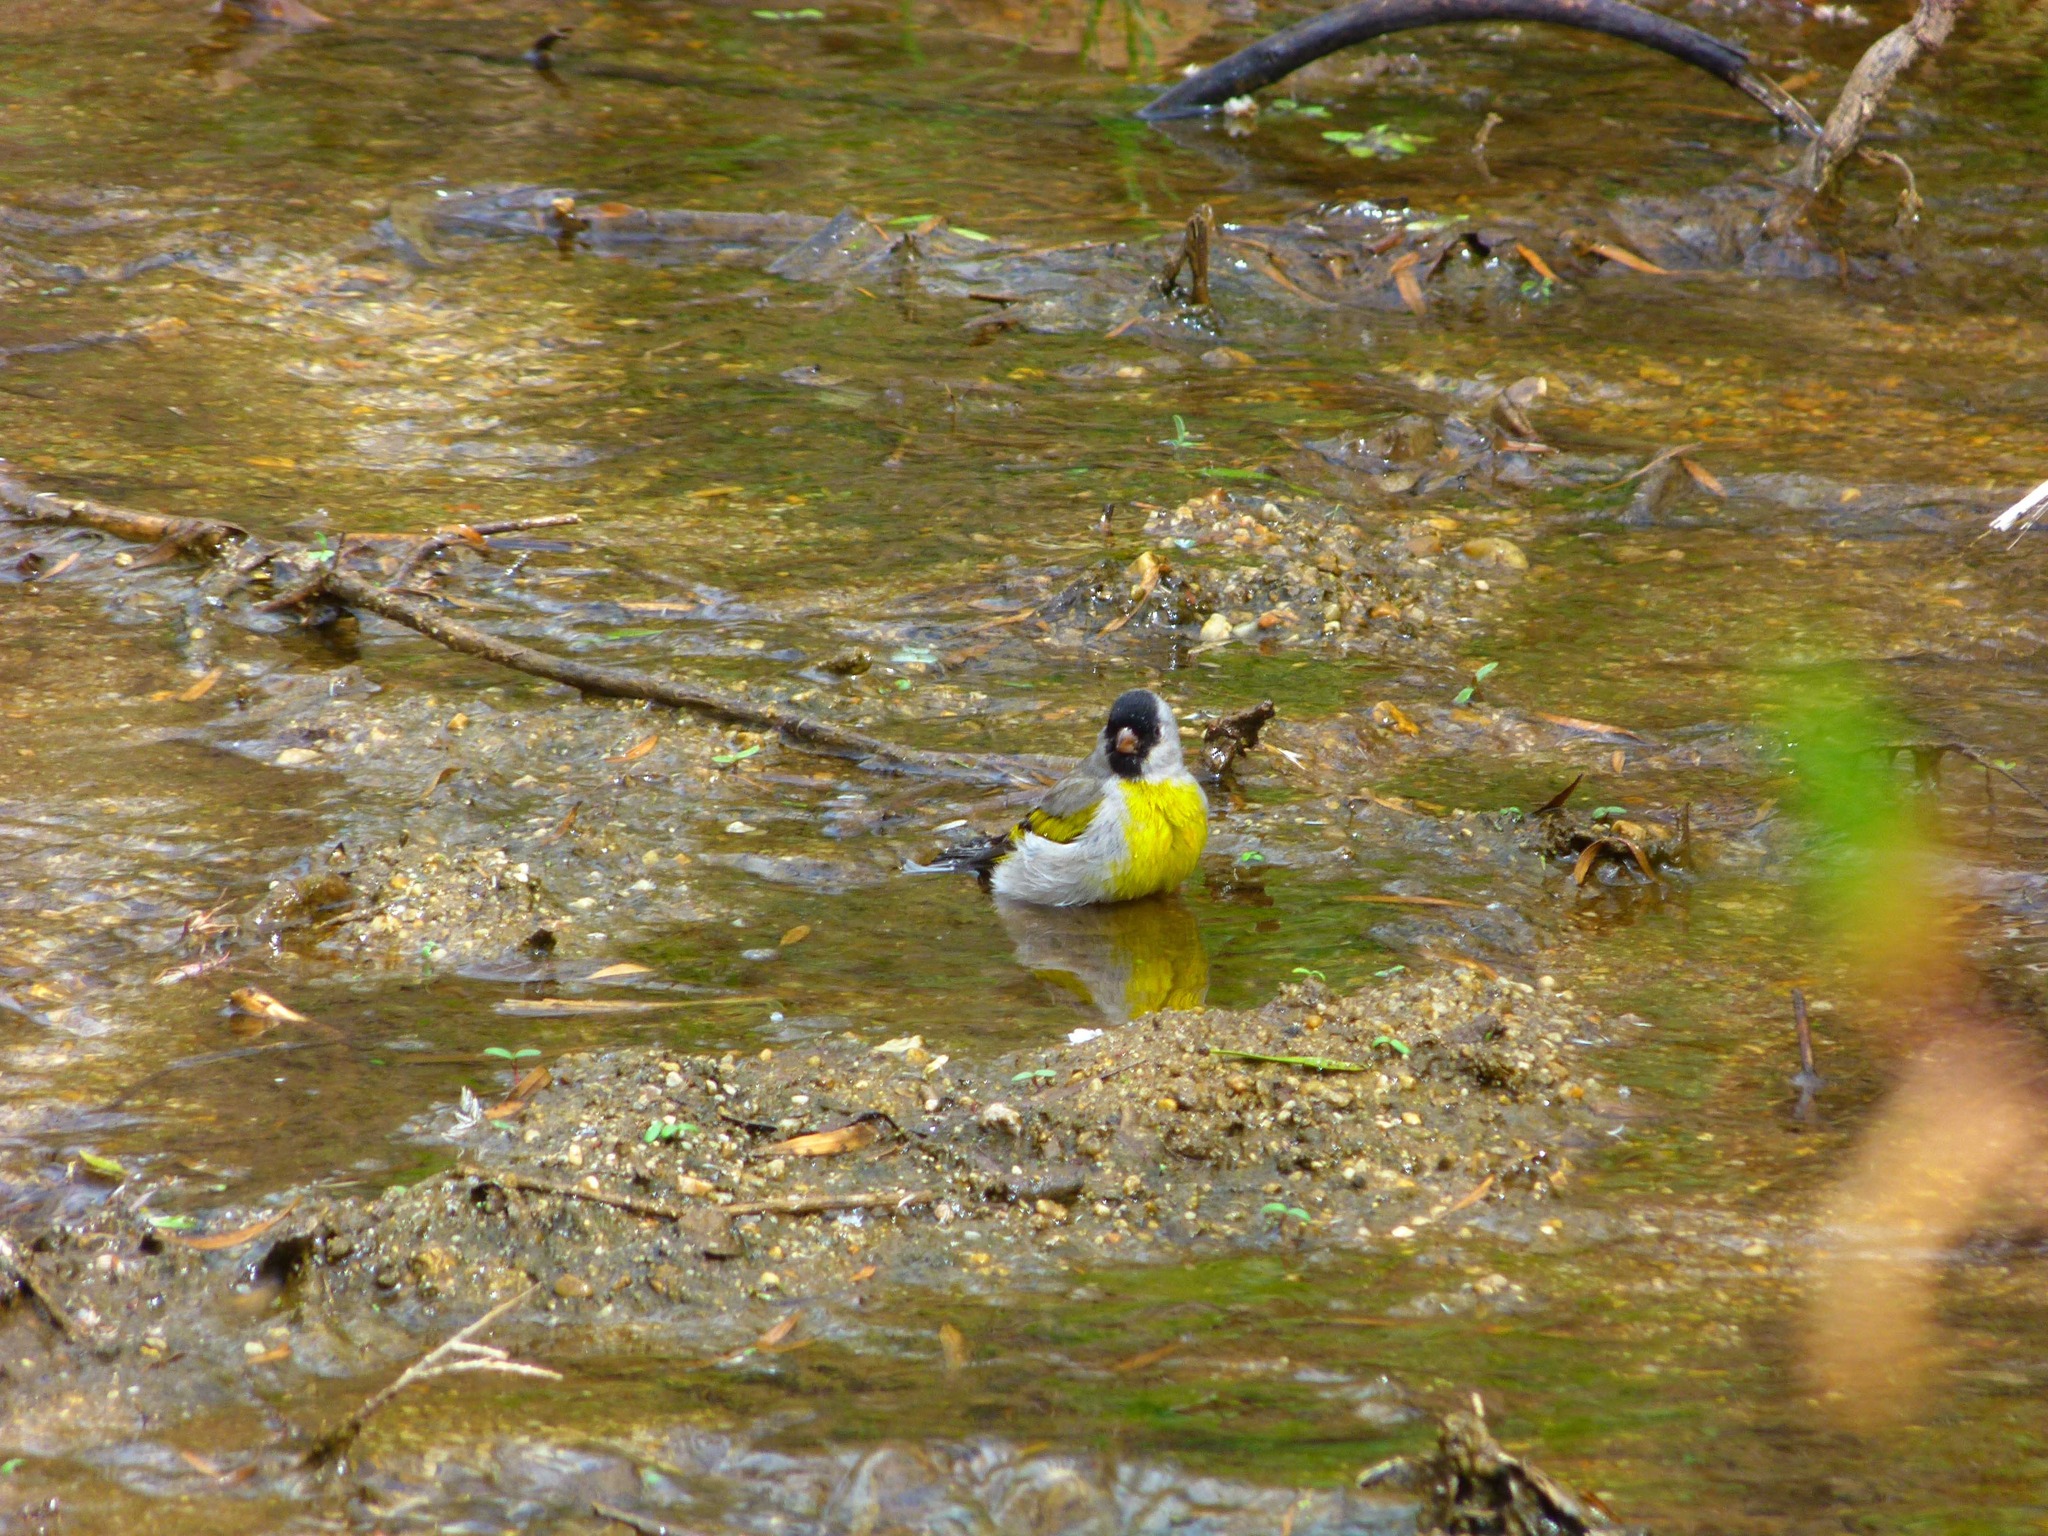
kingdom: Animalia
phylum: Chordata
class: Aves
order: Passeriformes
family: Fringillidae
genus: Spinus
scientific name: Spinus lawrencei
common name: Lawrence's goldfinch
